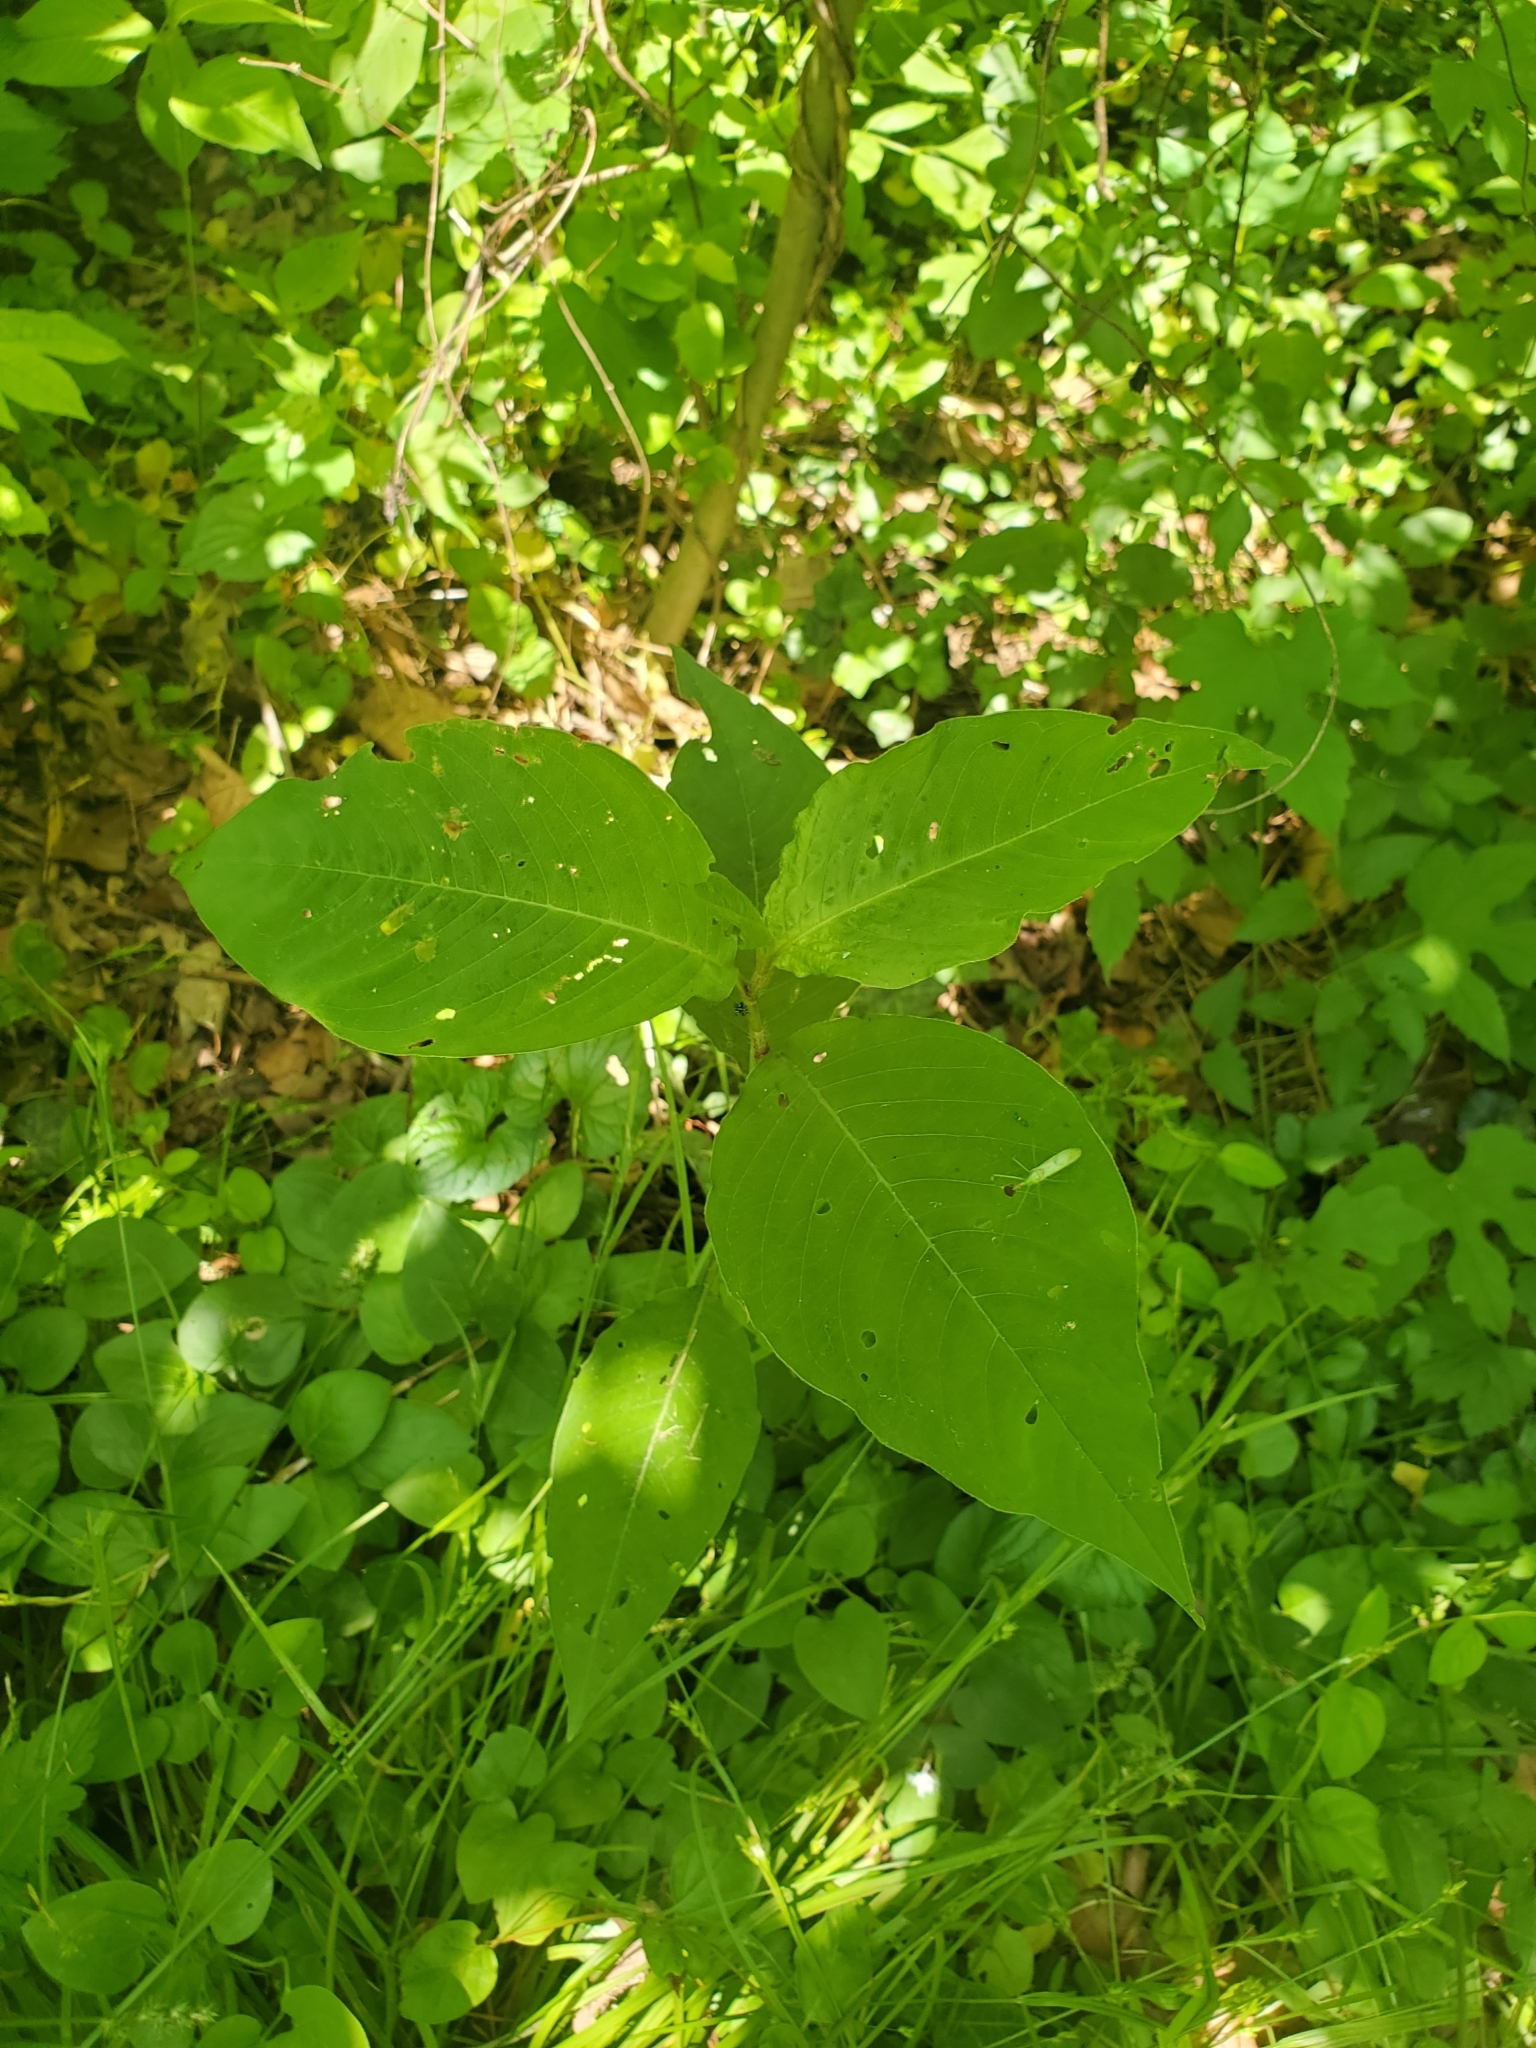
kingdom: Plantae
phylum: Tracheophyta
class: Magnoliopsida
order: Caryophyllales
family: Polygonaceae
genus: Persicaria
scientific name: Persicaria virginiana
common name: Jumpseed
